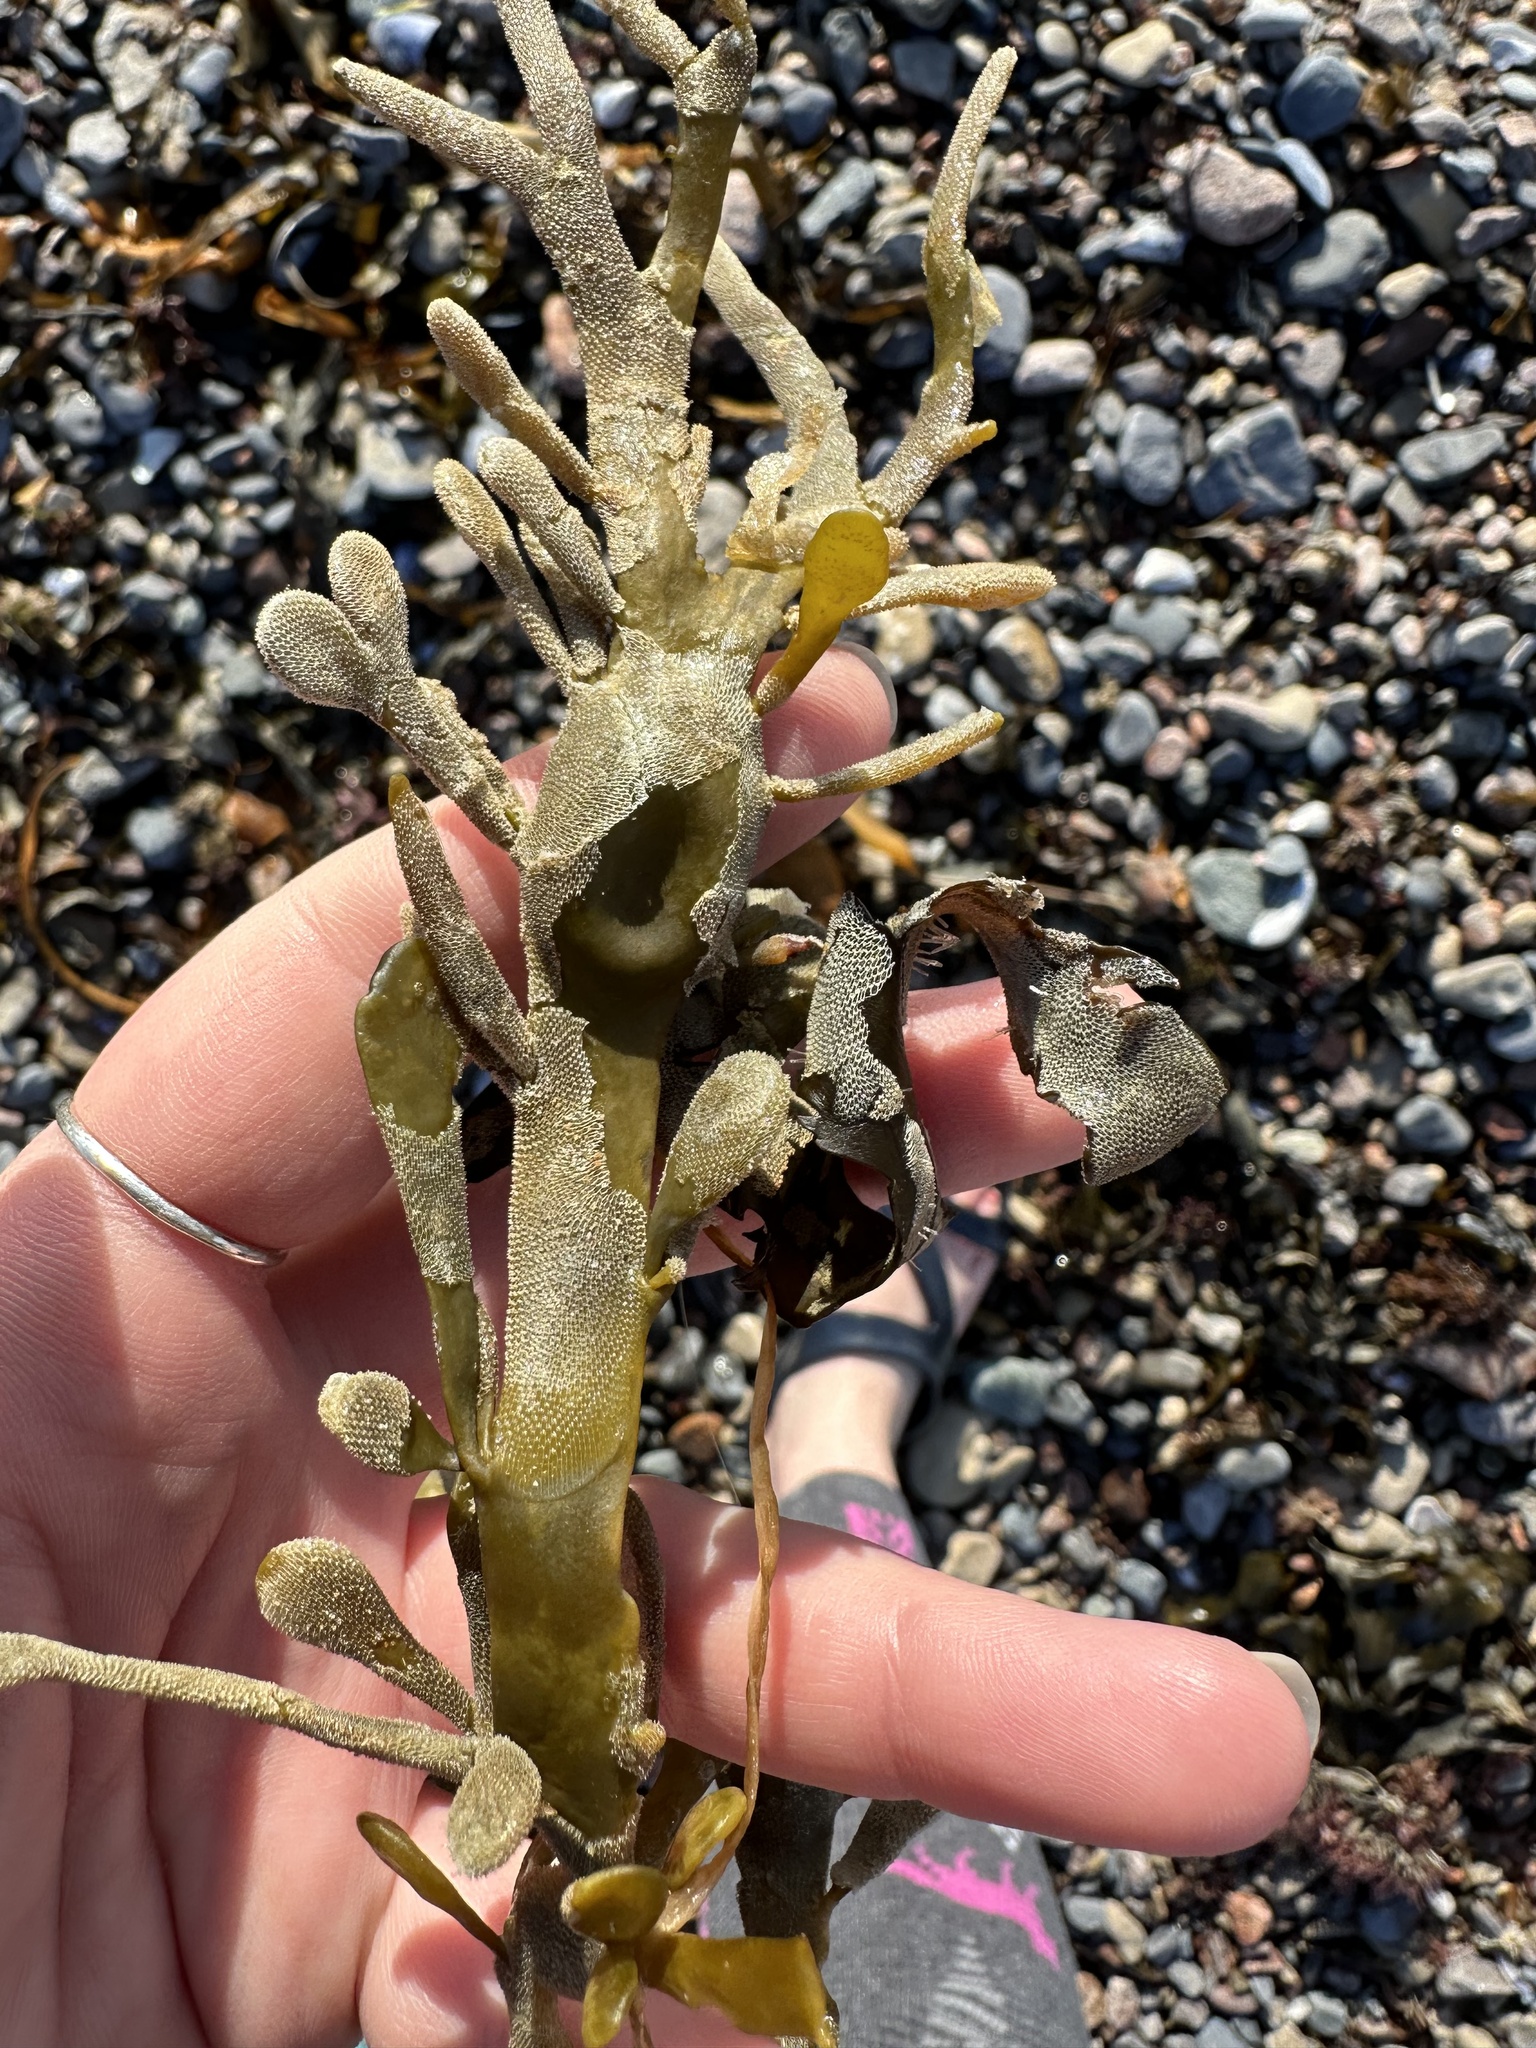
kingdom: Chromista
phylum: Ochrophyta
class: Phaeophyceae
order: Fucales
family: Fucaceae
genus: Ascophyllum
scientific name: Ascophyllum nodosum
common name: Knotted wrack
